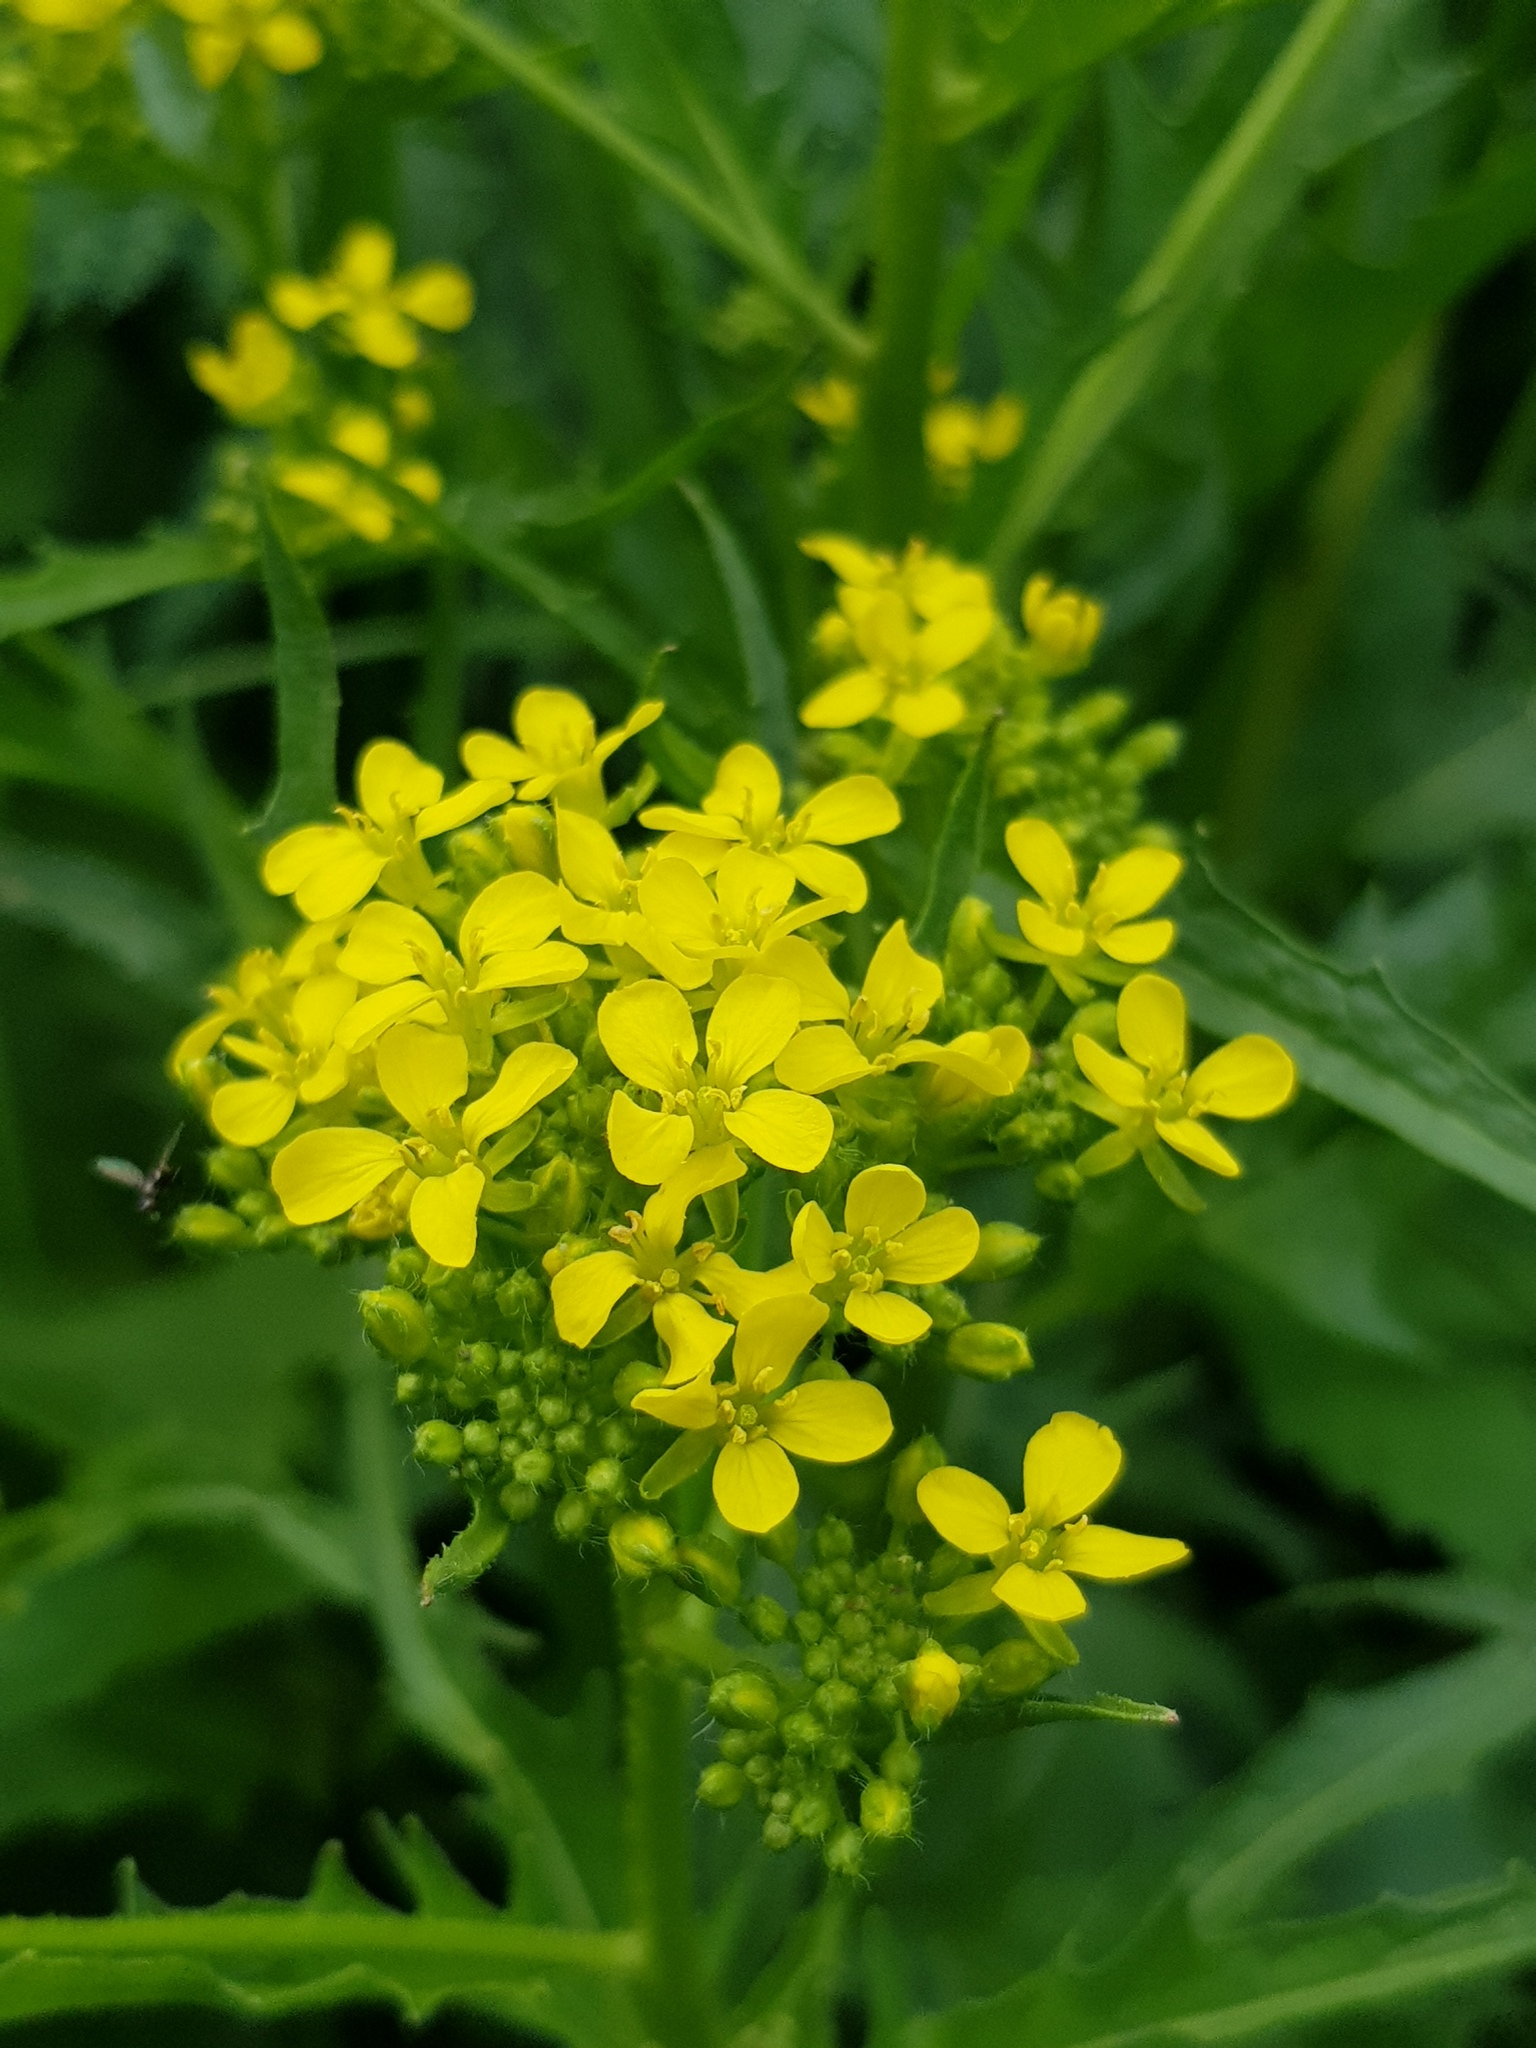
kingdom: Plantae
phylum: Tracheophyta
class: Magnoliopsida
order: Brassicales
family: Brassicaceae
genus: Bunias
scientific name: Bunias orientalis
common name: Warty-cabbage
